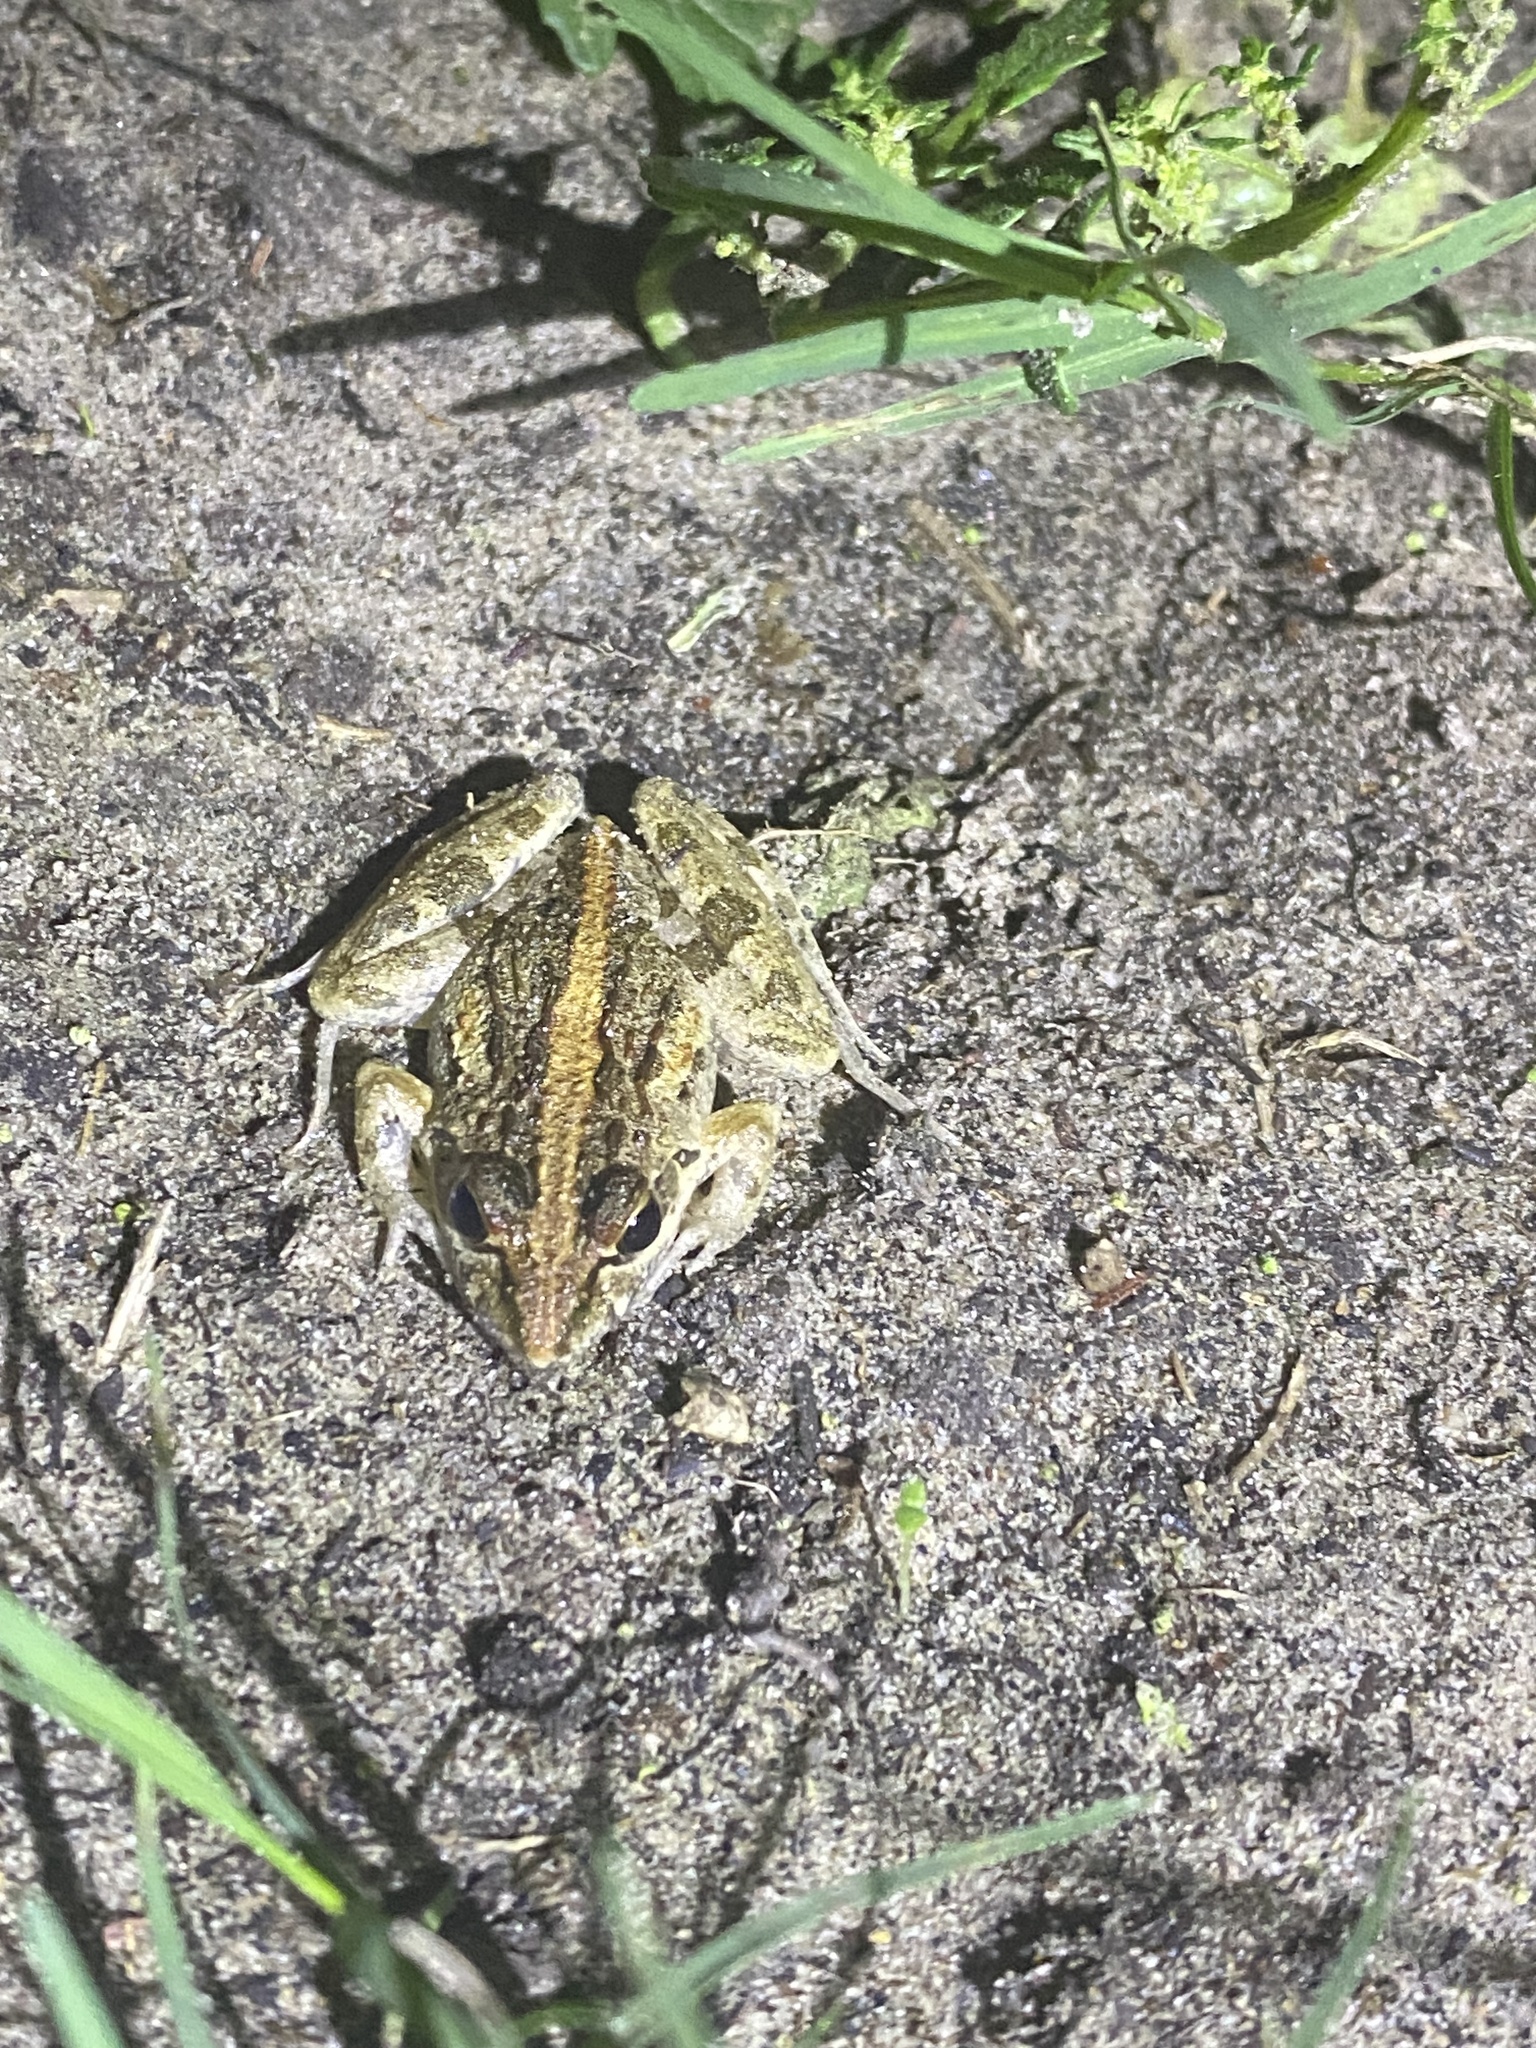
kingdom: Animalia
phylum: Chordata
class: Amphibia
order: Anura
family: Pyxicephalidae
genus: Strongylopus
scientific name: Strongylopus grayii
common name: Gray's stream frog
